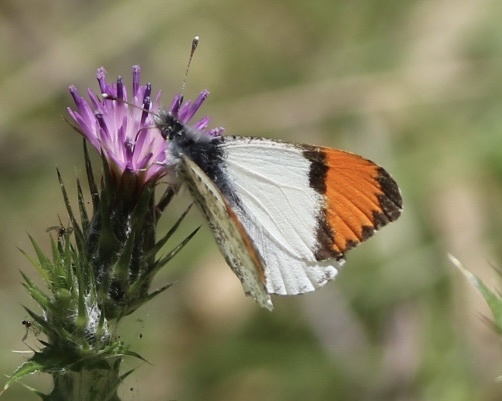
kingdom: Animalia
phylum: Arthropoda
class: Insecta
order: Lepidoptera
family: Pieridae
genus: Anthocharis
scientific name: Anthocharis sara
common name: Sara's orangetip
